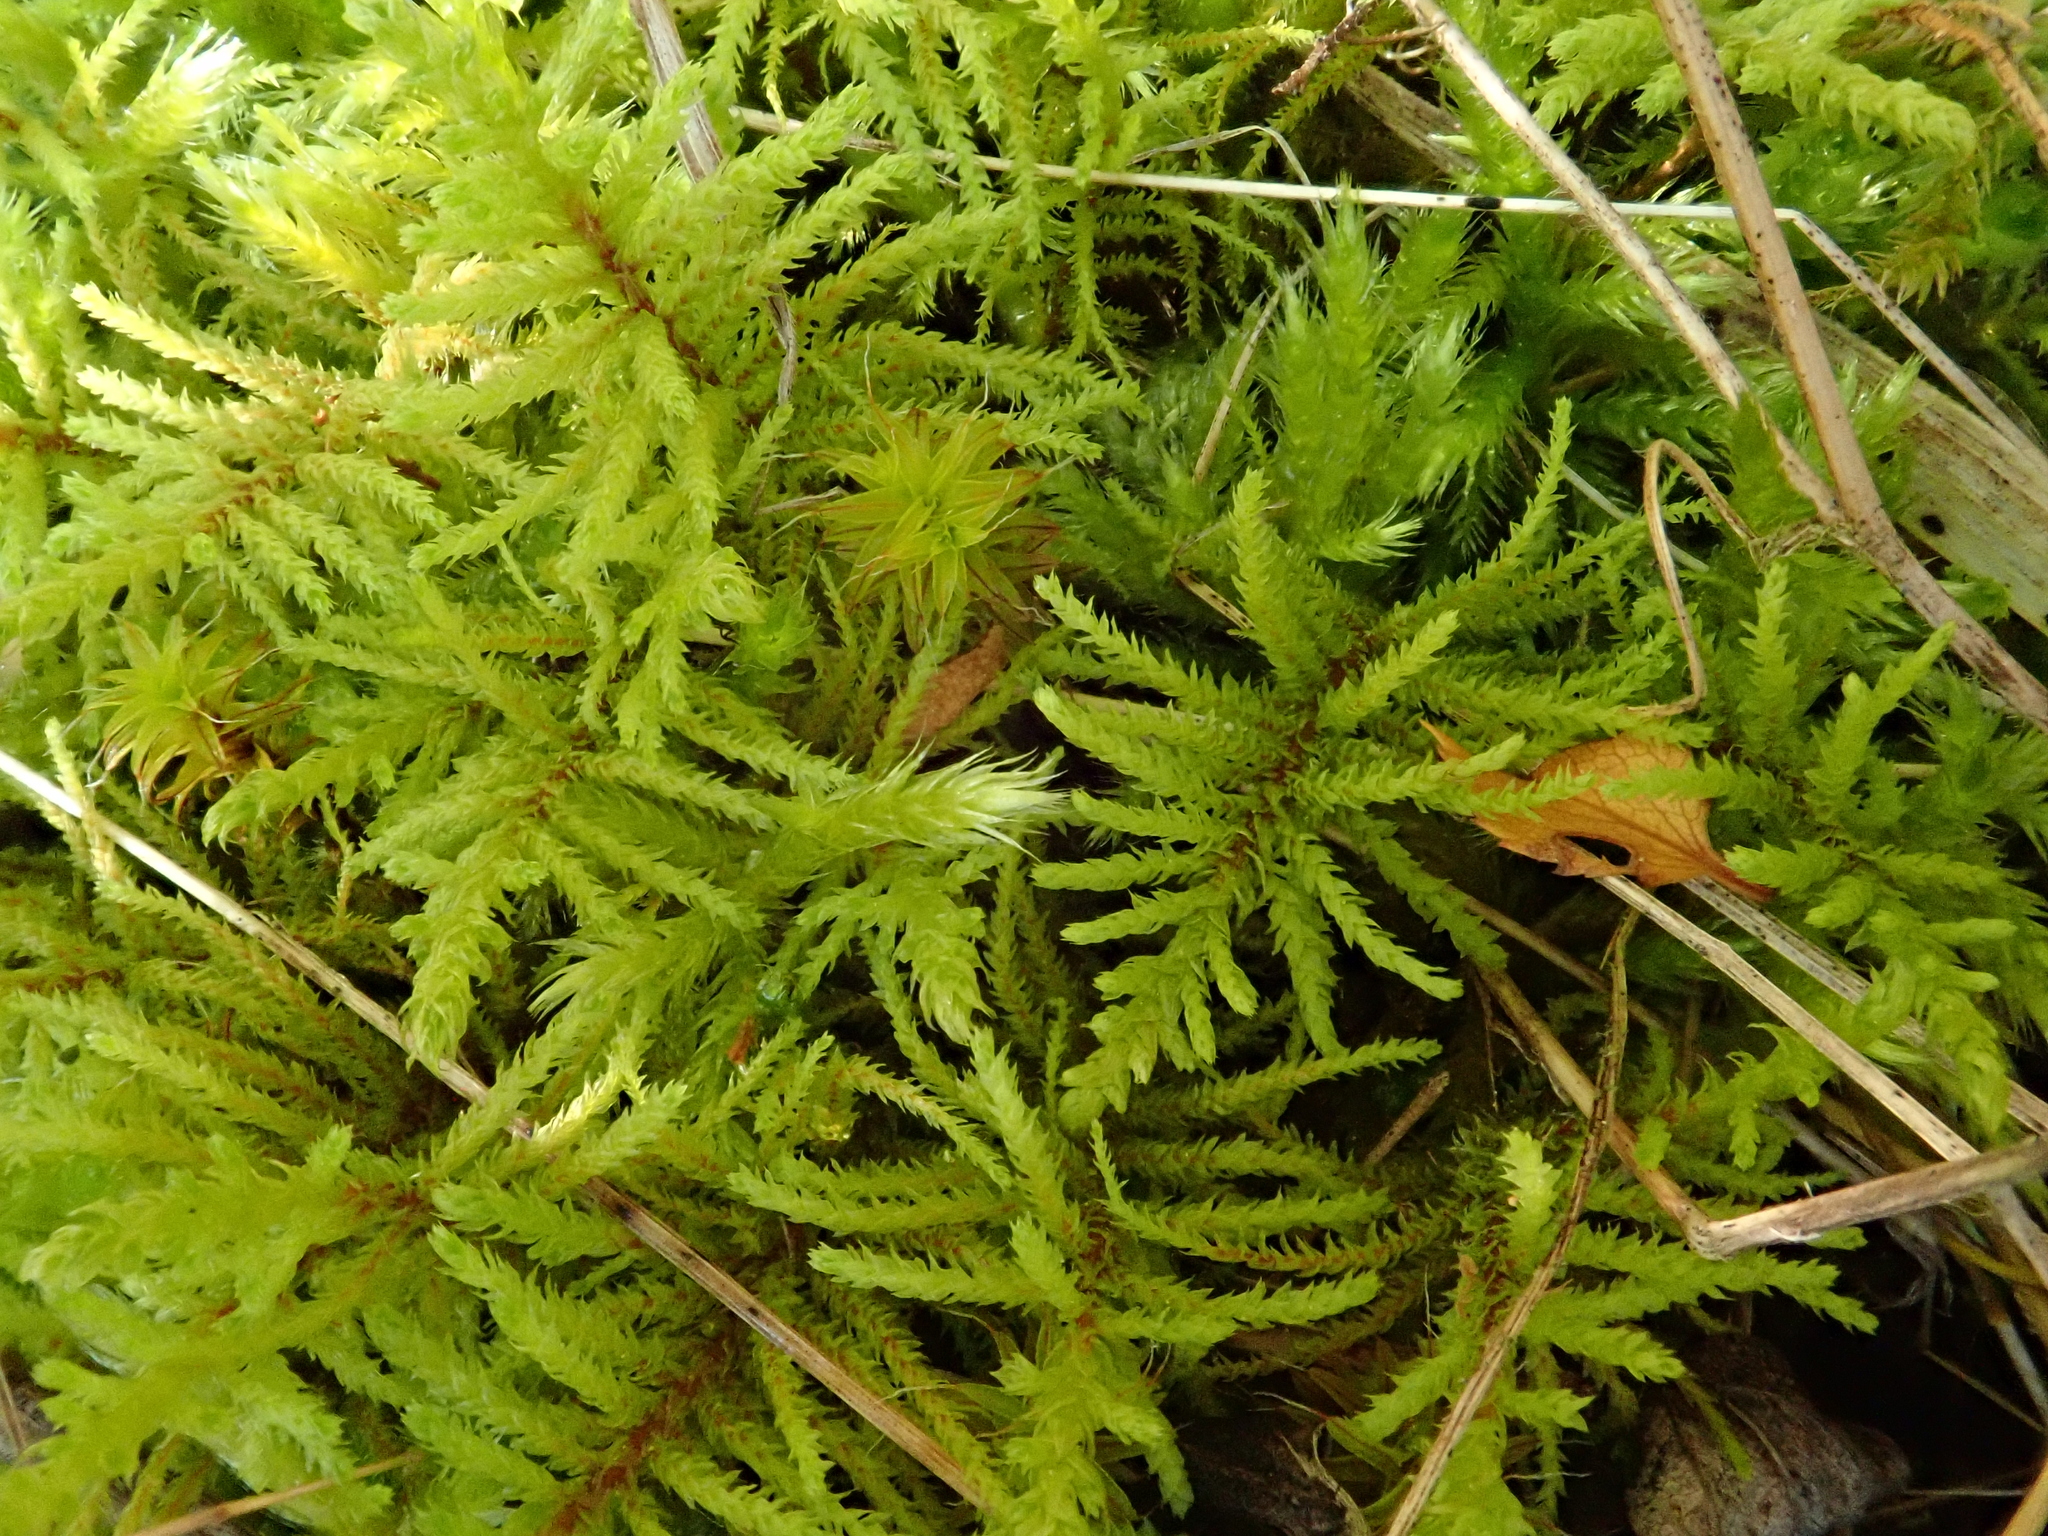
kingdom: Plantae
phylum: Bryophyta
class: Bryopsida
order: Hypnales
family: Thuidiaceae
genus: Abietinella
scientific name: Abietinella abietina
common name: Wiry fern moss
